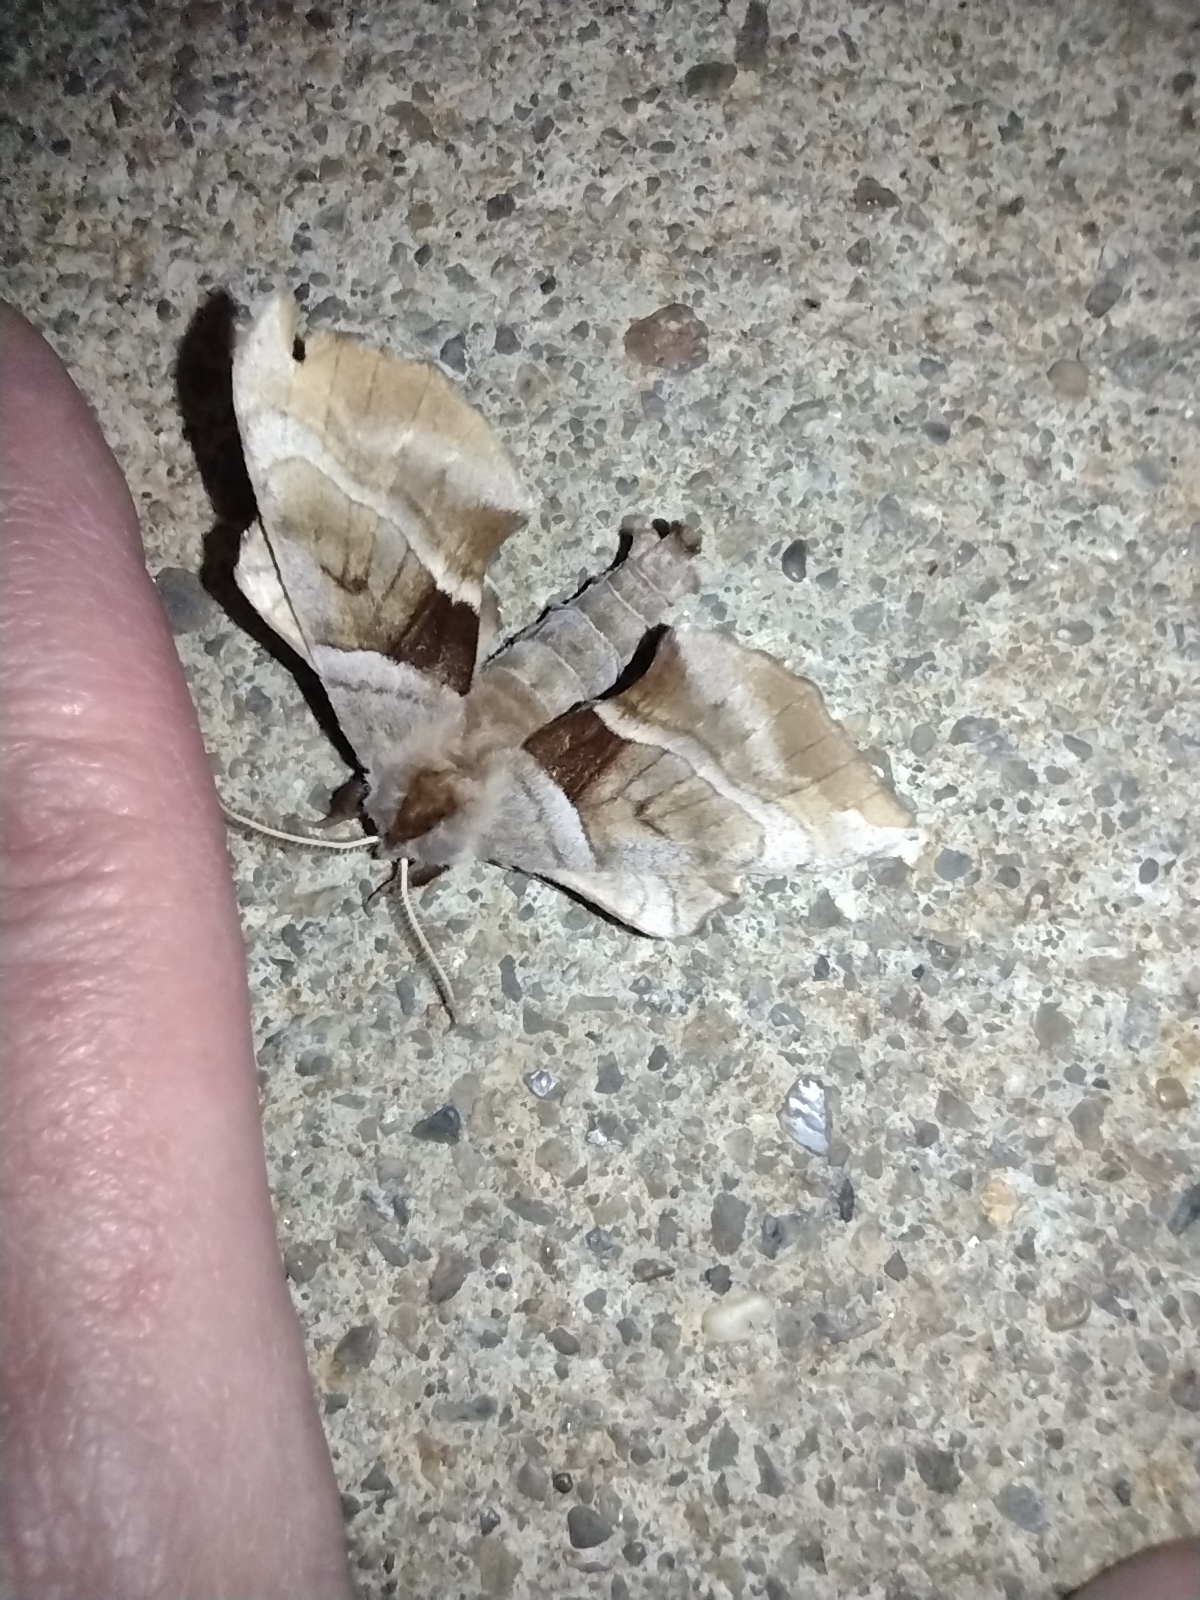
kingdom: Animalia
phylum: Arthropoda
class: Insecta
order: Lepidoptera
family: Sphingidae
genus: Amorpha
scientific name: Amorpha juglandis
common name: Walnut sphinx
